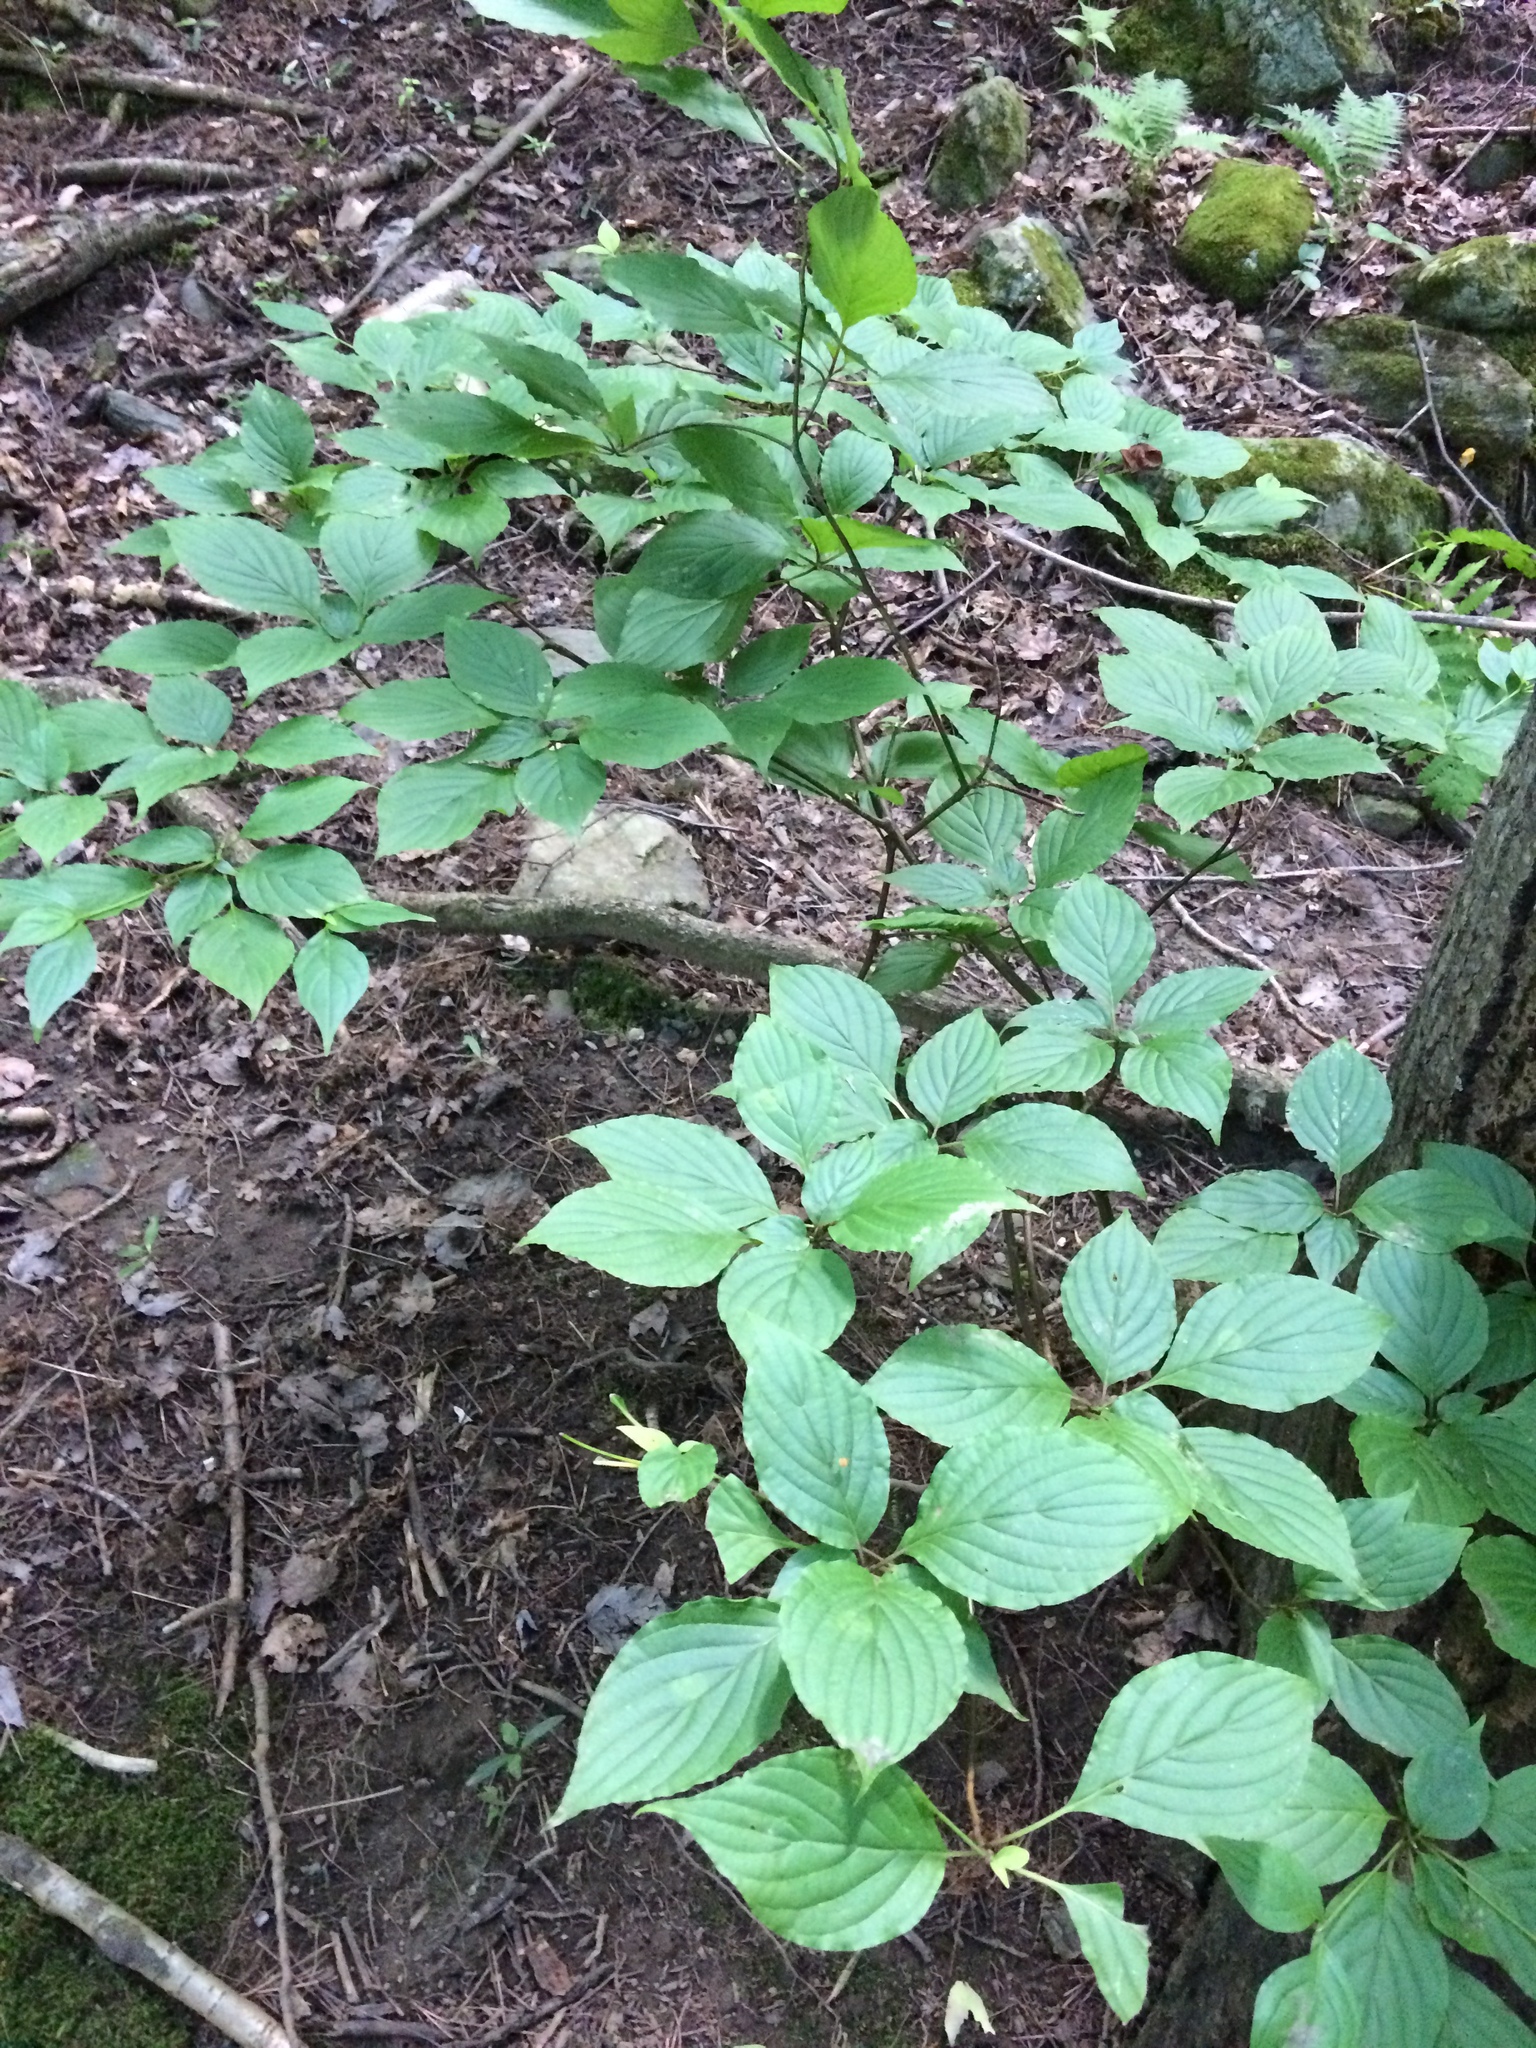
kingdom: Plantae
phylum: Tracheophyta
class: Magnoliopsida
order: Cornales
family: Cornaceae
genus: Cornus
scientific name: Cornus alternifolia
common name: Pagoda dogwood
